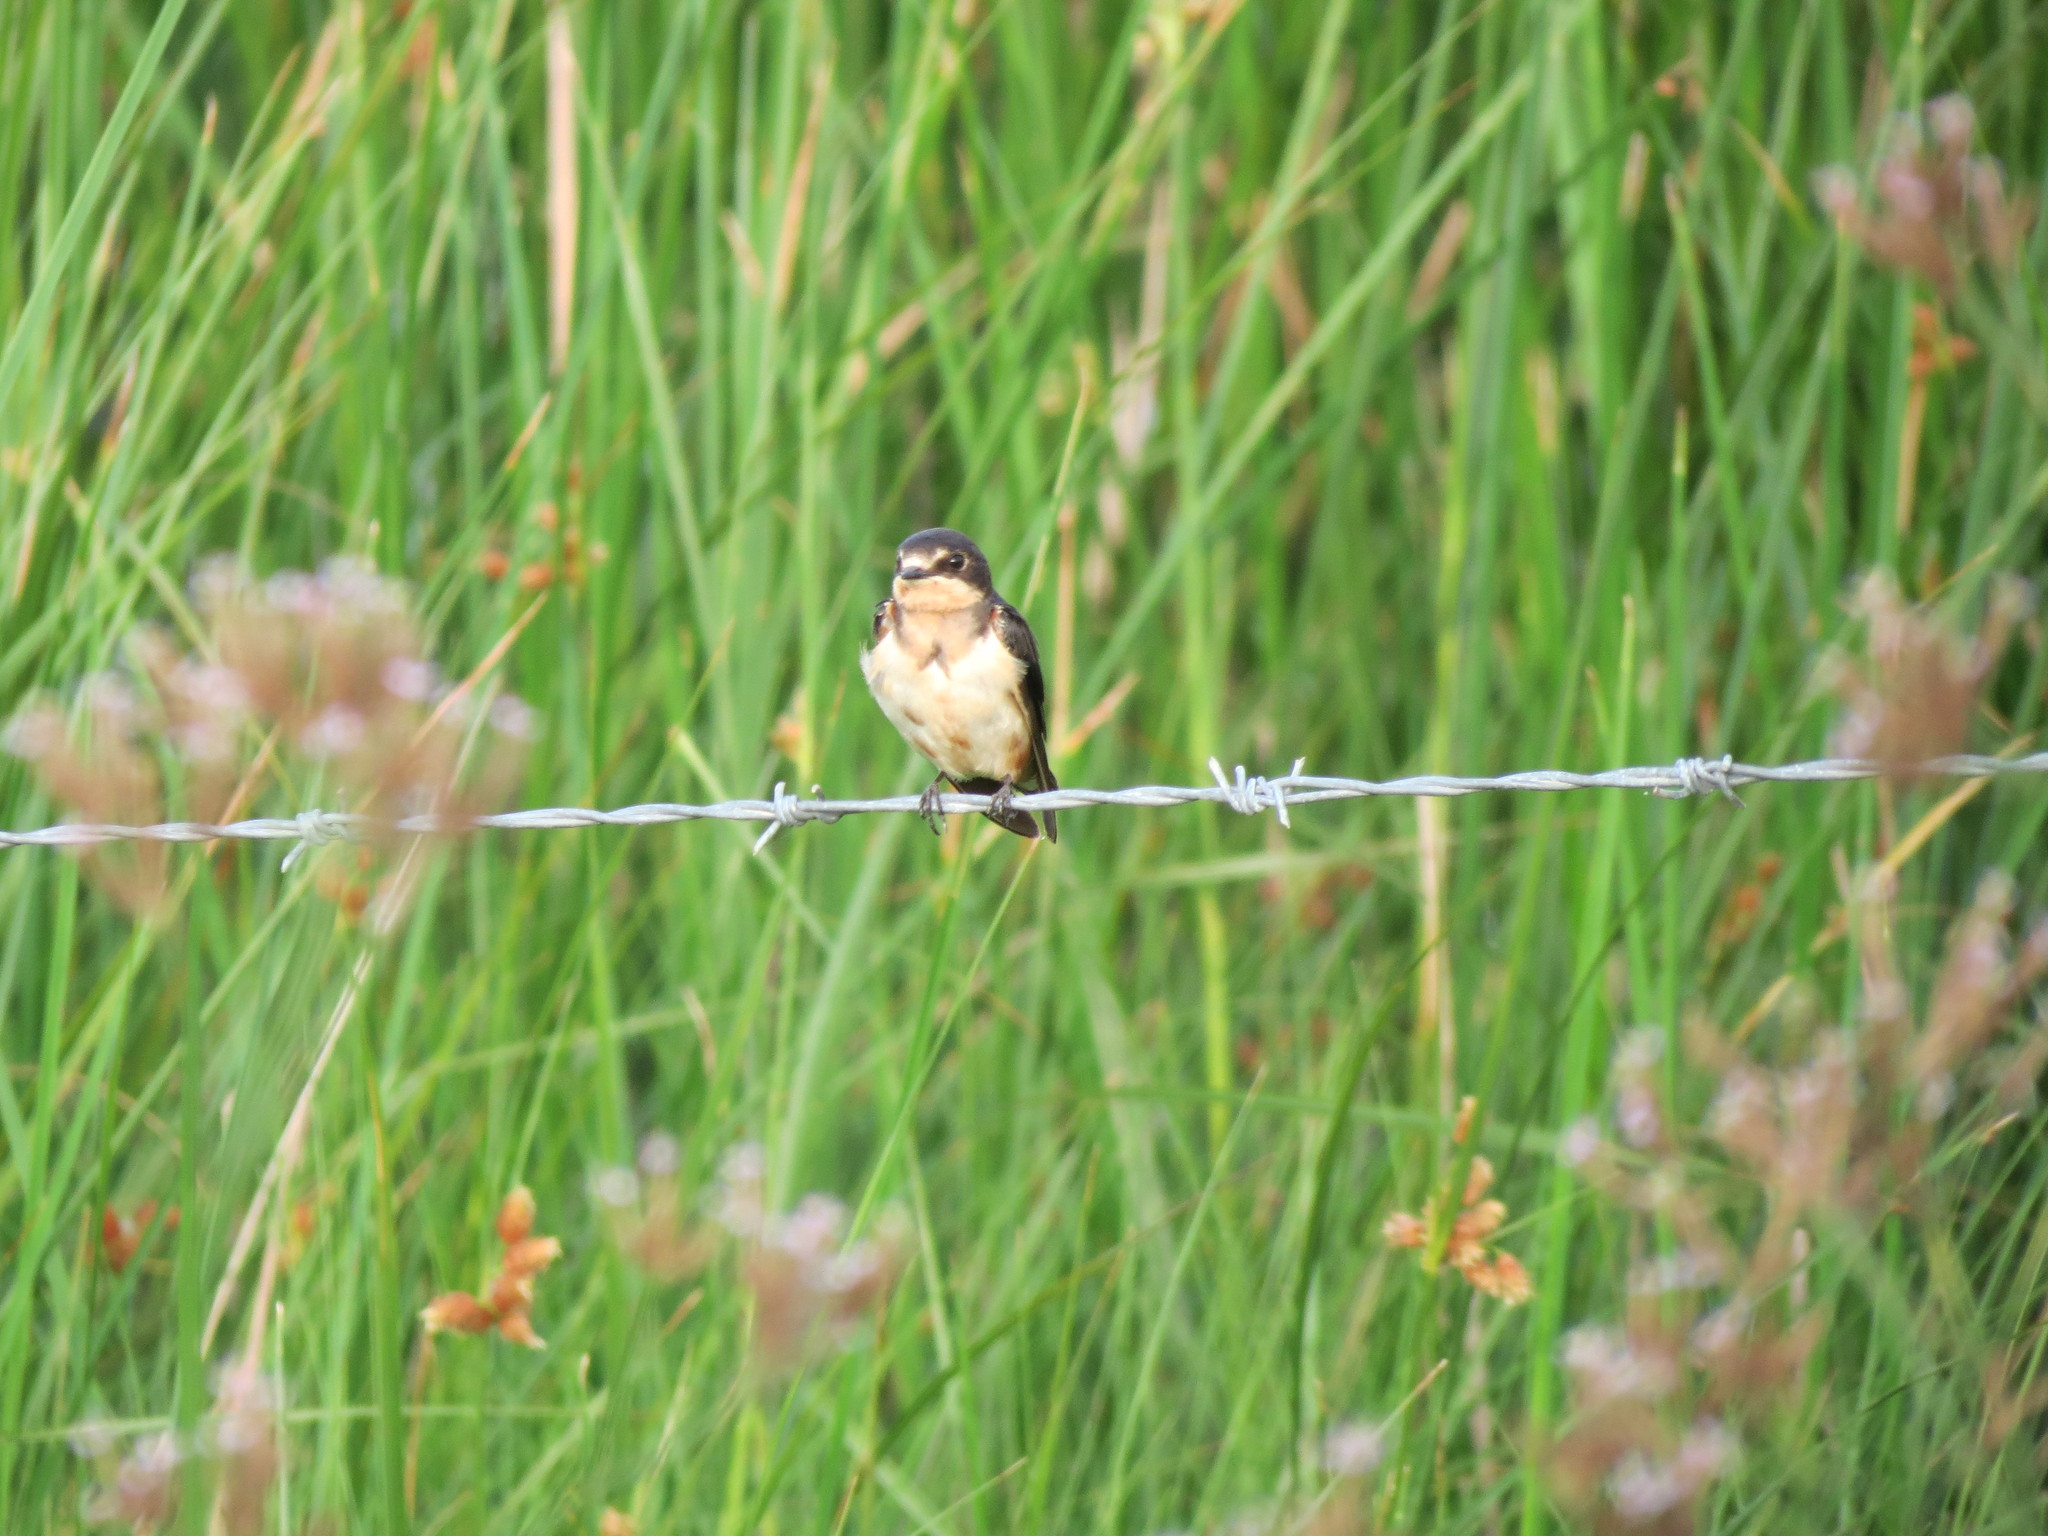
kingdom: Animalia
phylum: Chordata
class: Aves
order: Passeriformes
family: Hirundinidae
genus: Hirundo
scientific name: Hirundo rustica
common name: Barn swallow
